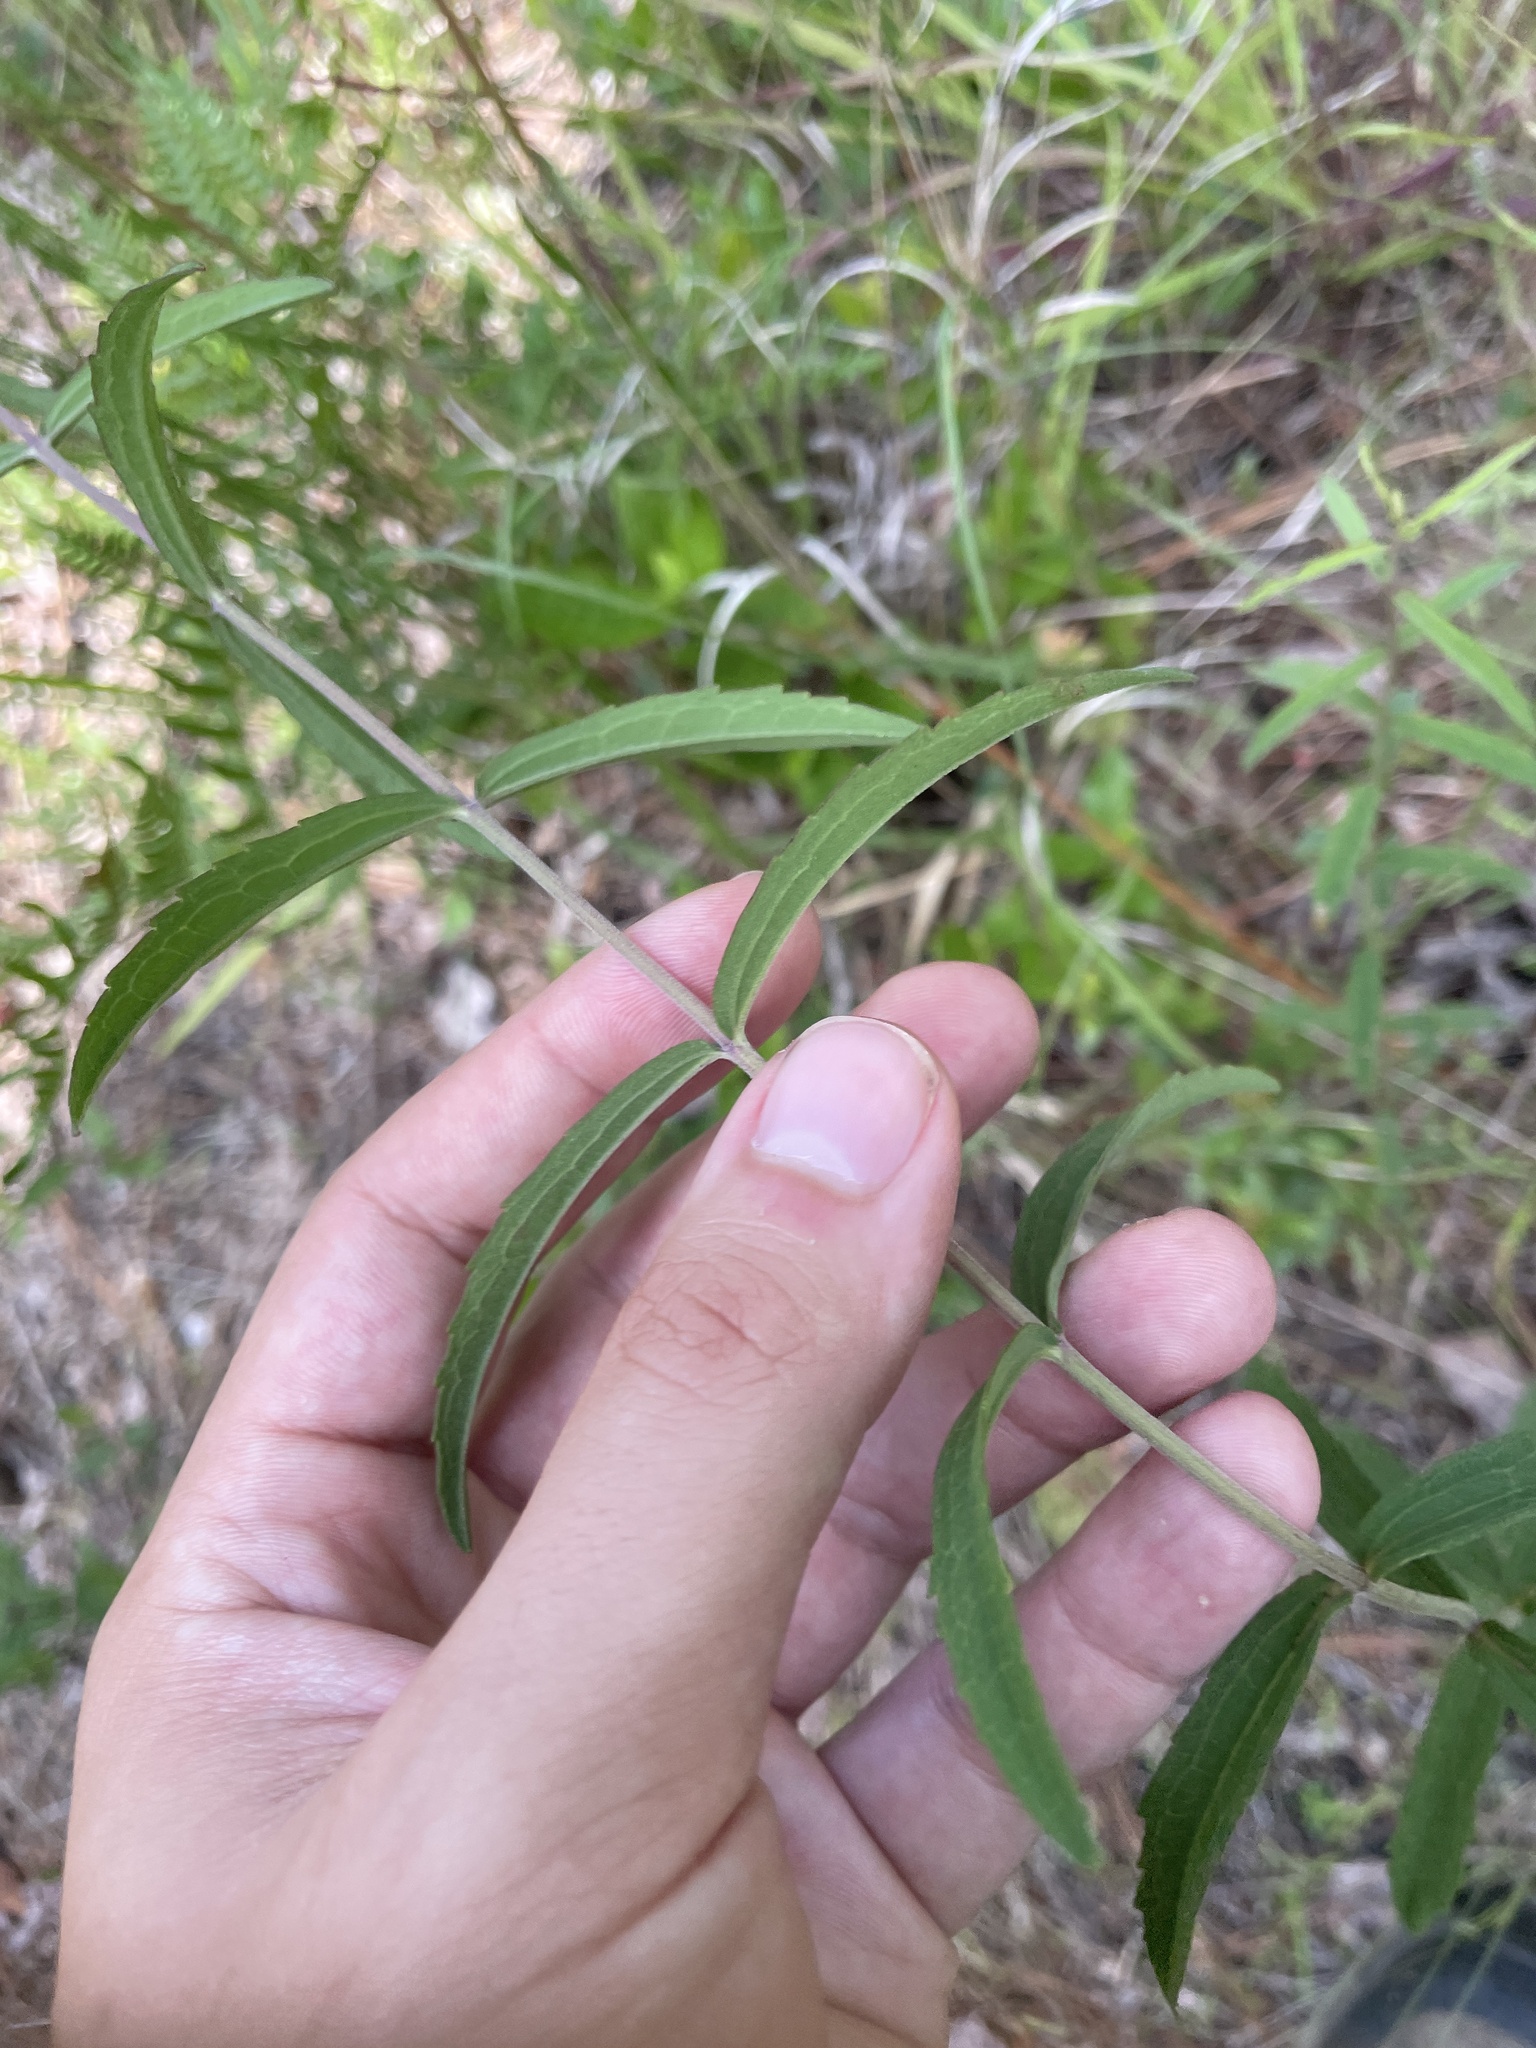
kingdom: Plantae
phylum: Tracheophyta
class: Magnoliopsida
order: Asterales
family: Asteraceae
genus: Eupatorium
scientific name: Eupatorium leucolepis
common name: Justiceweed
